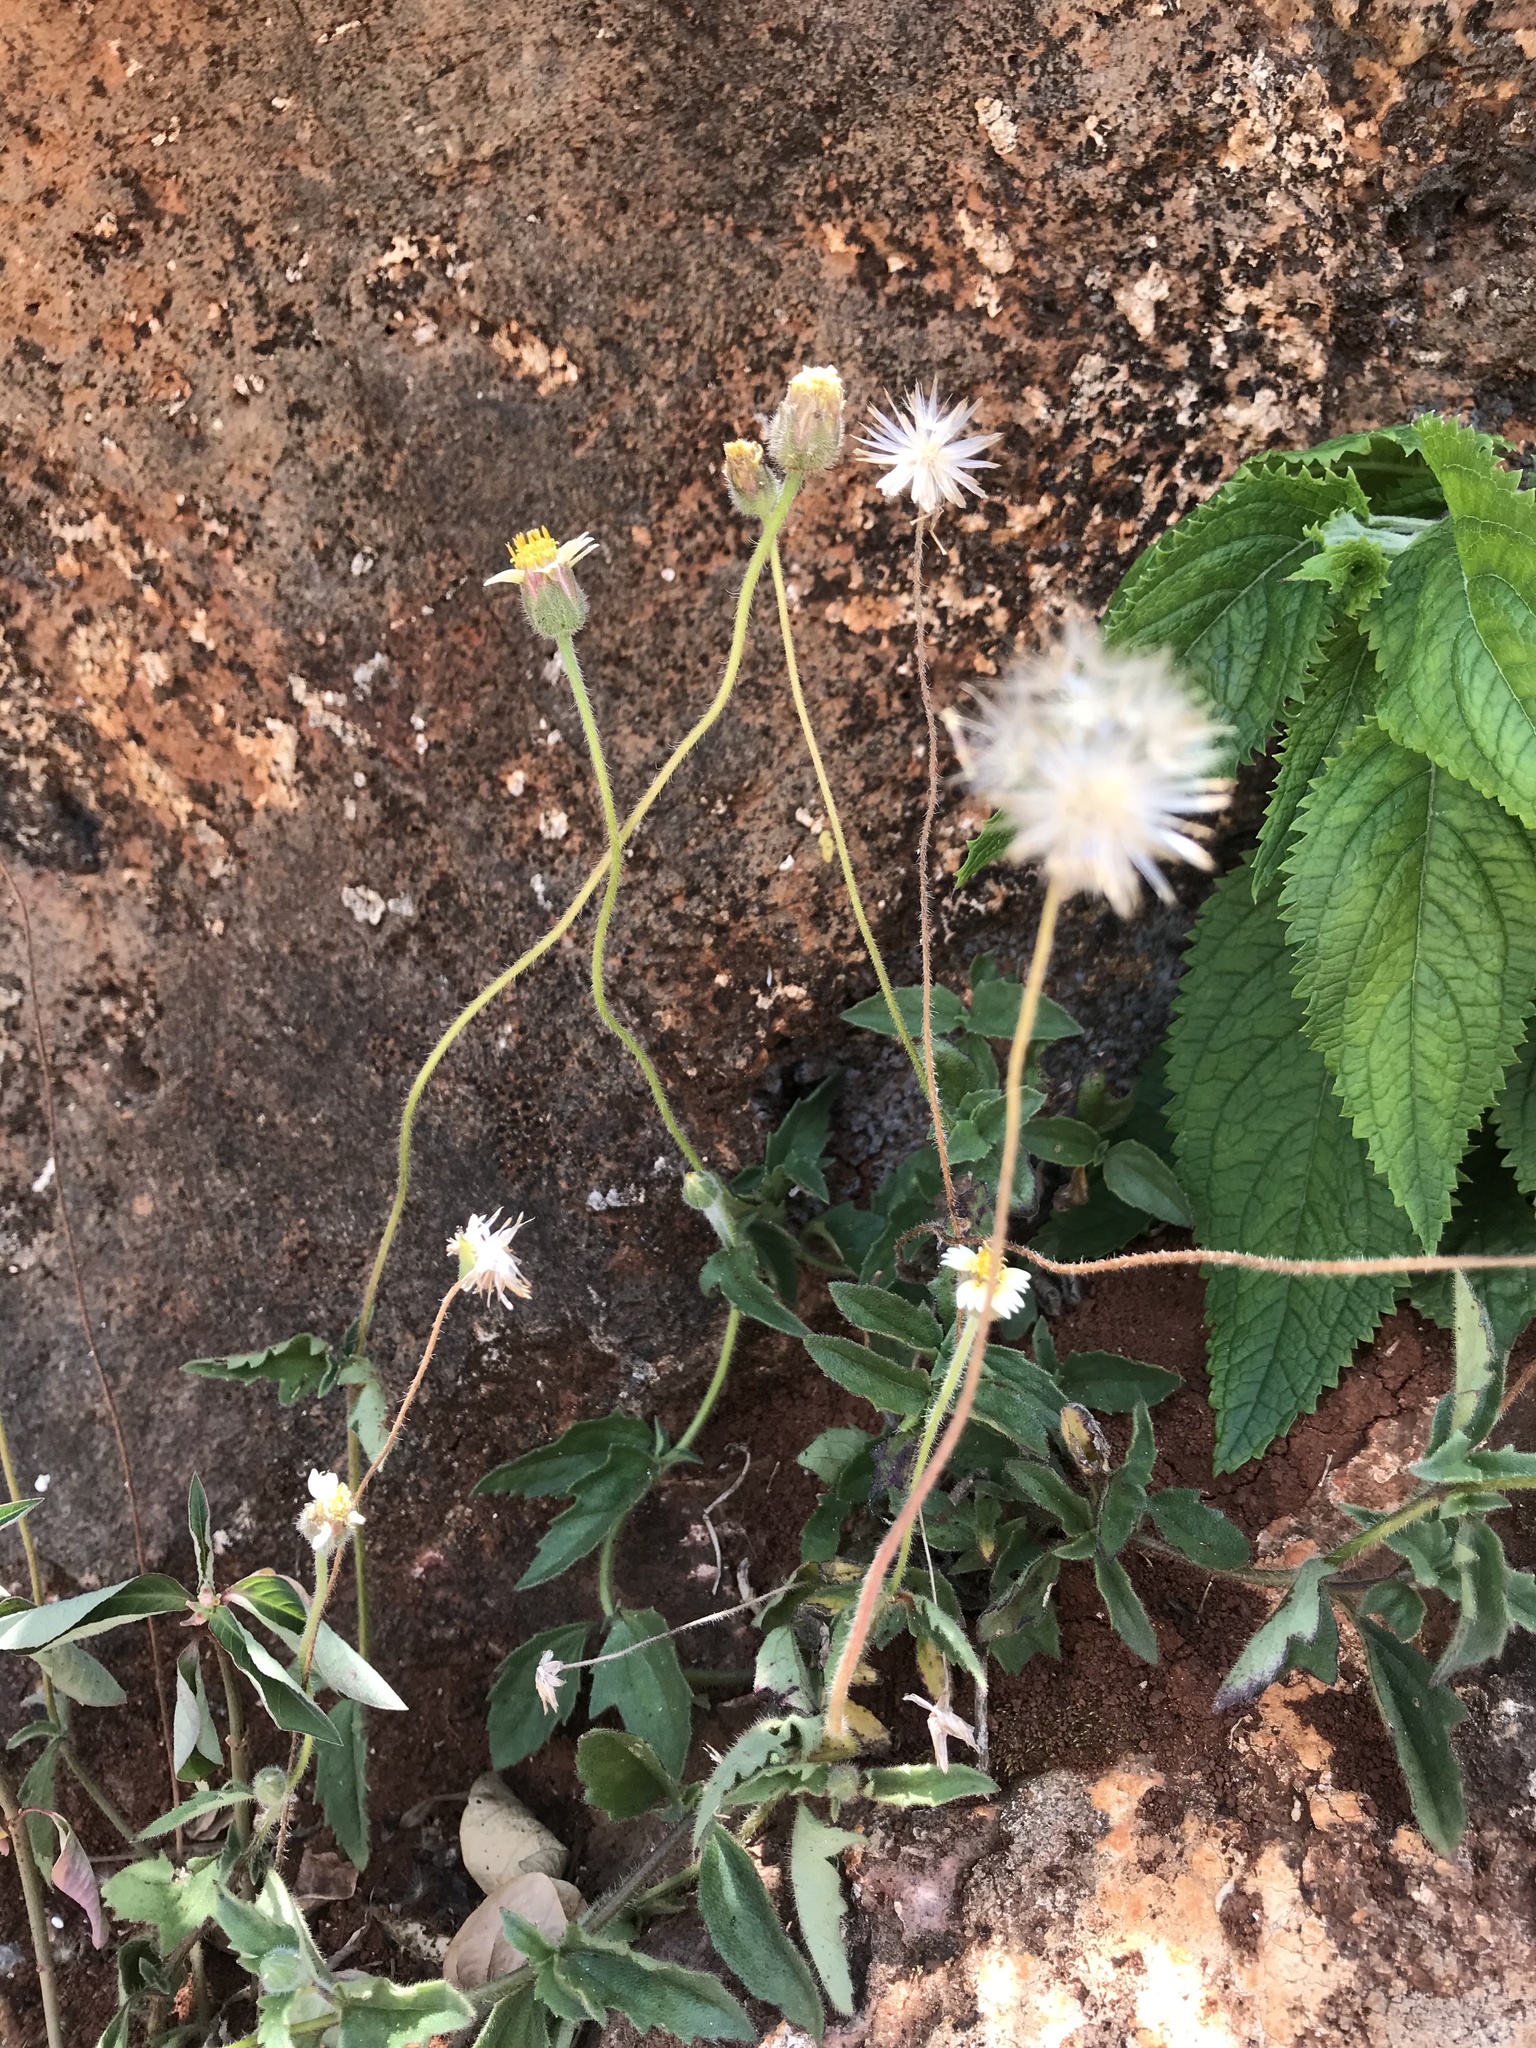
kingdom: Plantae
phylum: Tracheophyta
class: Magnoliopsida
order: Asterales
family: Asteraceae
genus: Tridax
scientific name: Tridax procumbens
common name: Coatbuttons
